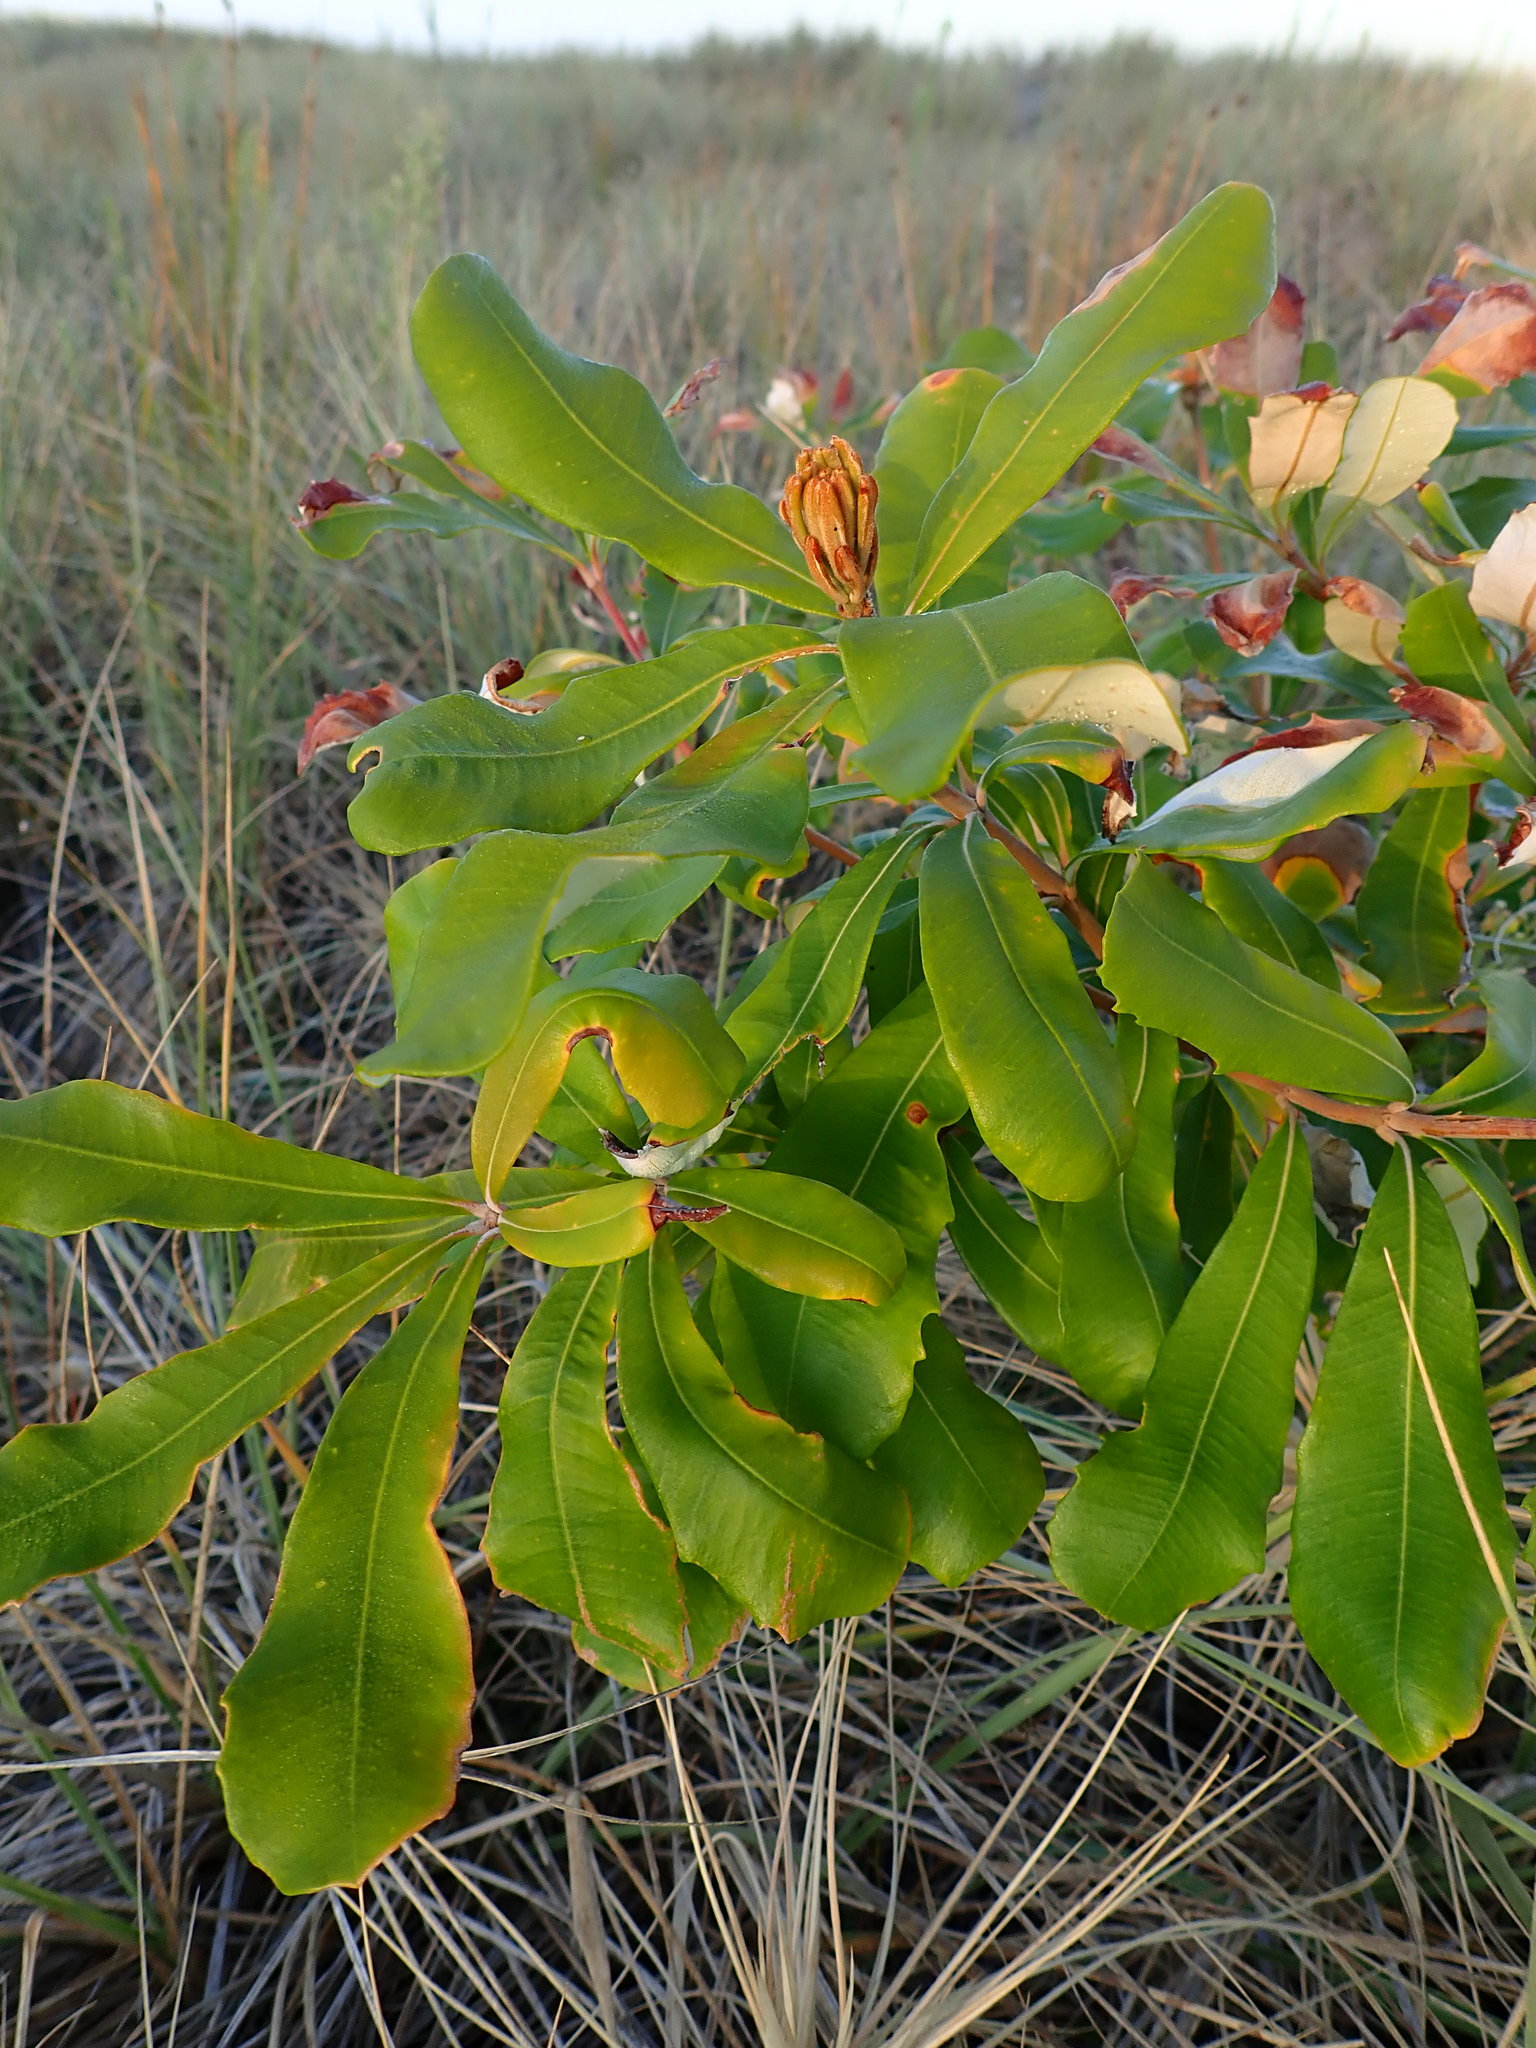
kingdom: Plantae
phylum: Tracheophyta
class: Magnoliopsida
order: Proteales
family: Proteaceae
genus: Banksia
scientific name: Banksia integrifolia
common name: White-honeysuckle
